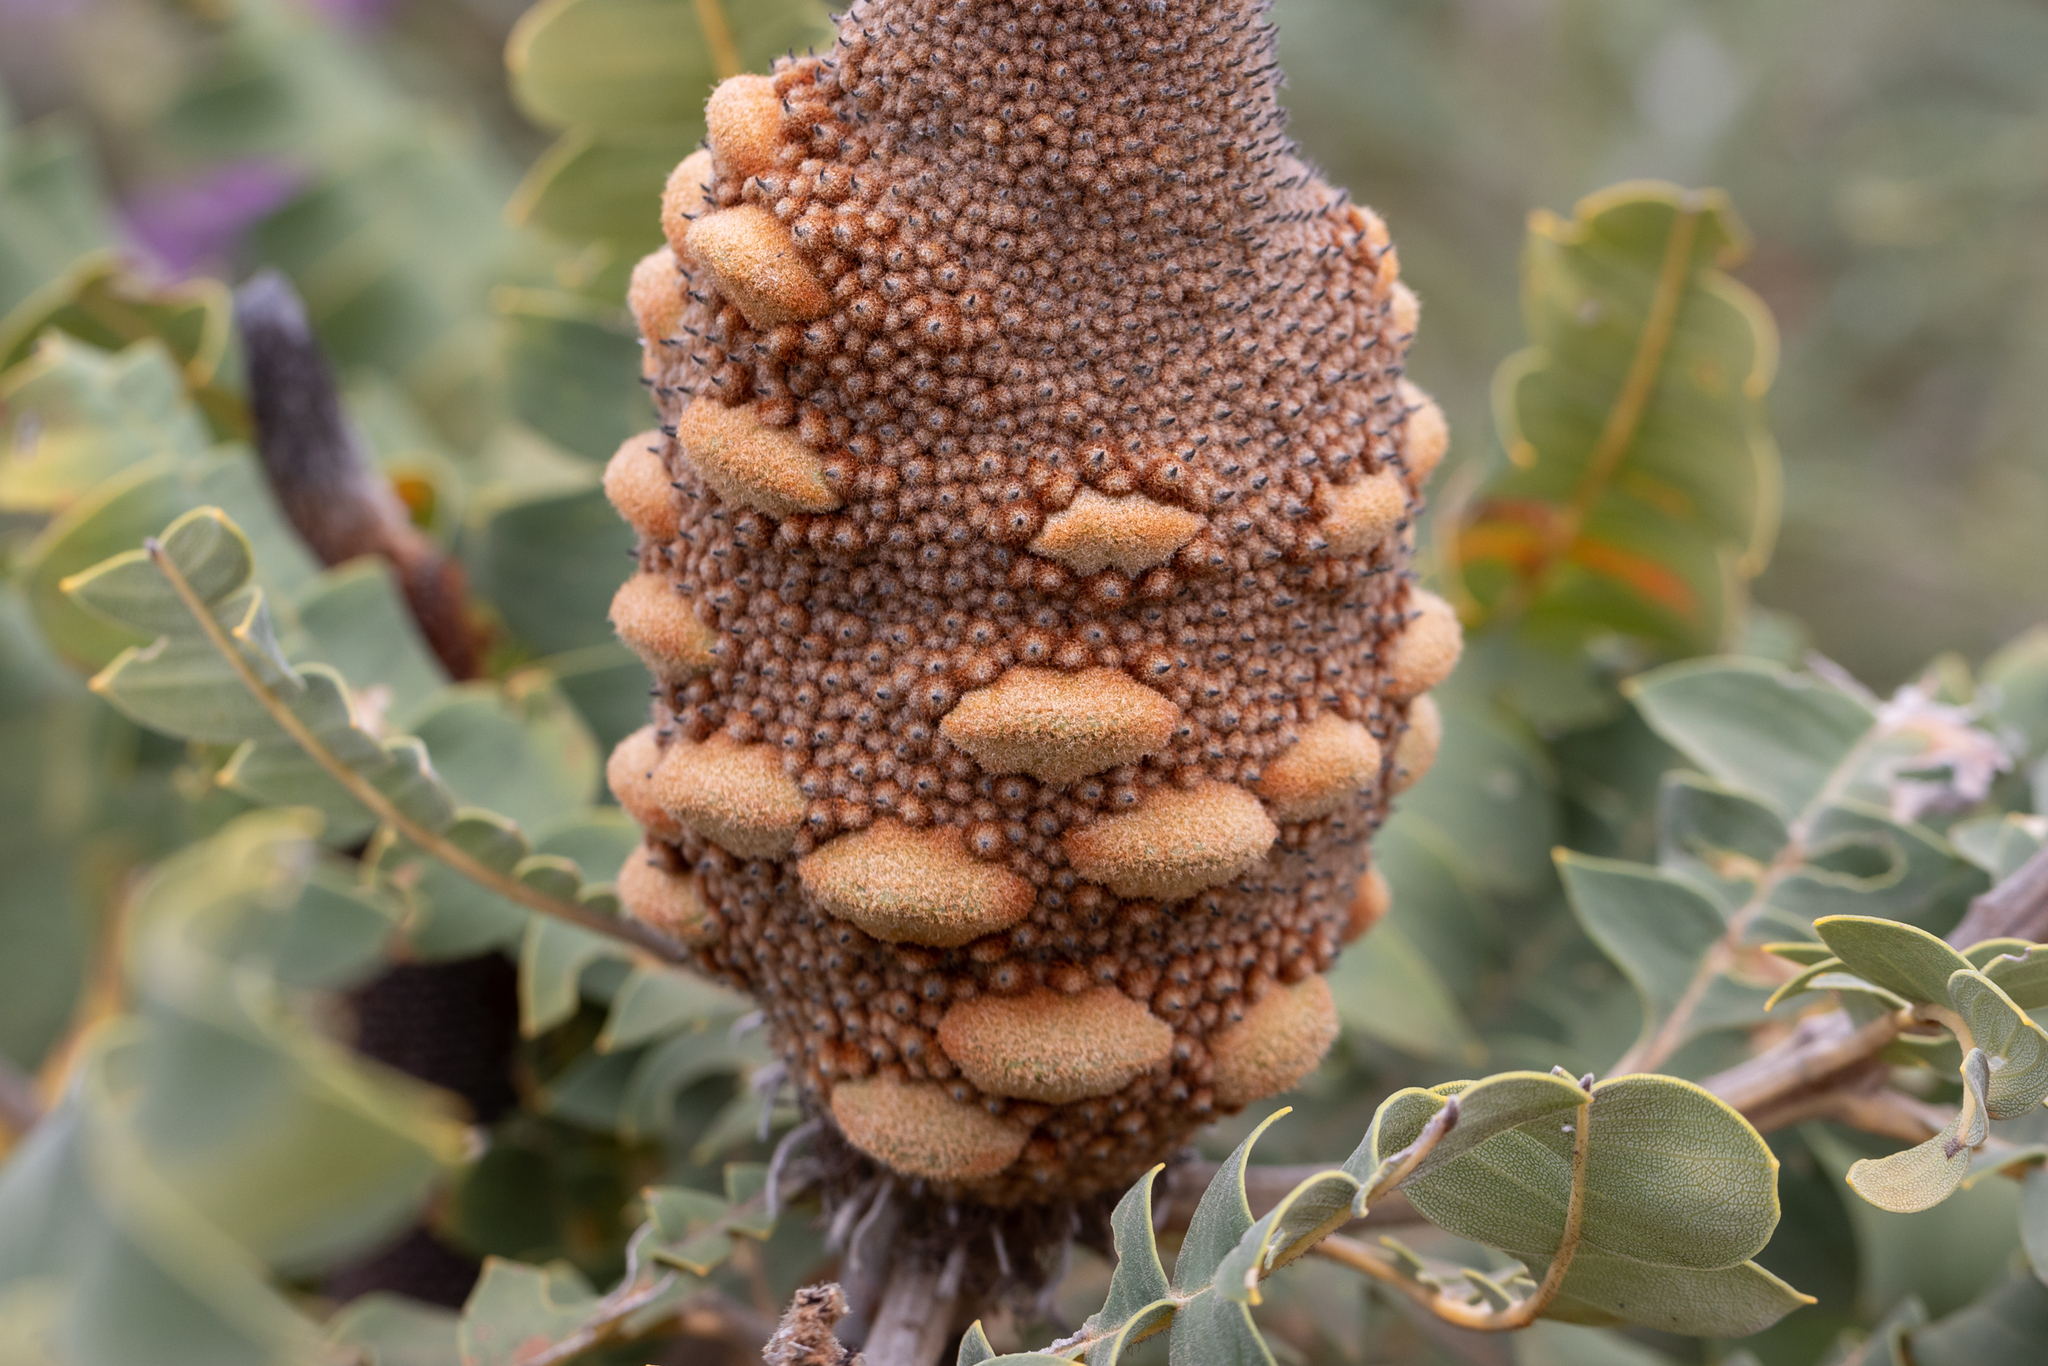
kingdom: Plantae
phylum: Tracheophyta
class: Magnoliopsida
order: Proteales
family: Proteaceae
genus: Banksia
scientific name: Banksia grandis
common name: Giant banksia
